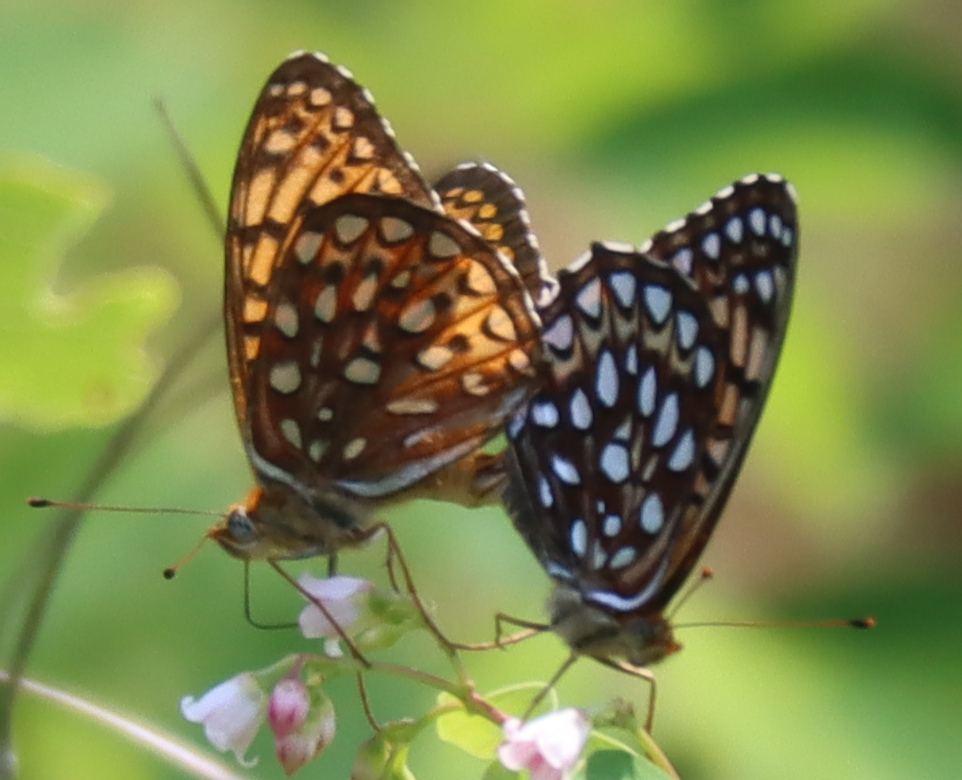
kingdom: Animalia
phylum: Arthropoda
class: Insecta
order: Lepidoptera
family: Nymphalidae
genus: Speyeria
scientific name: Speyeria atlantis
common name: Atlantis fritillary
